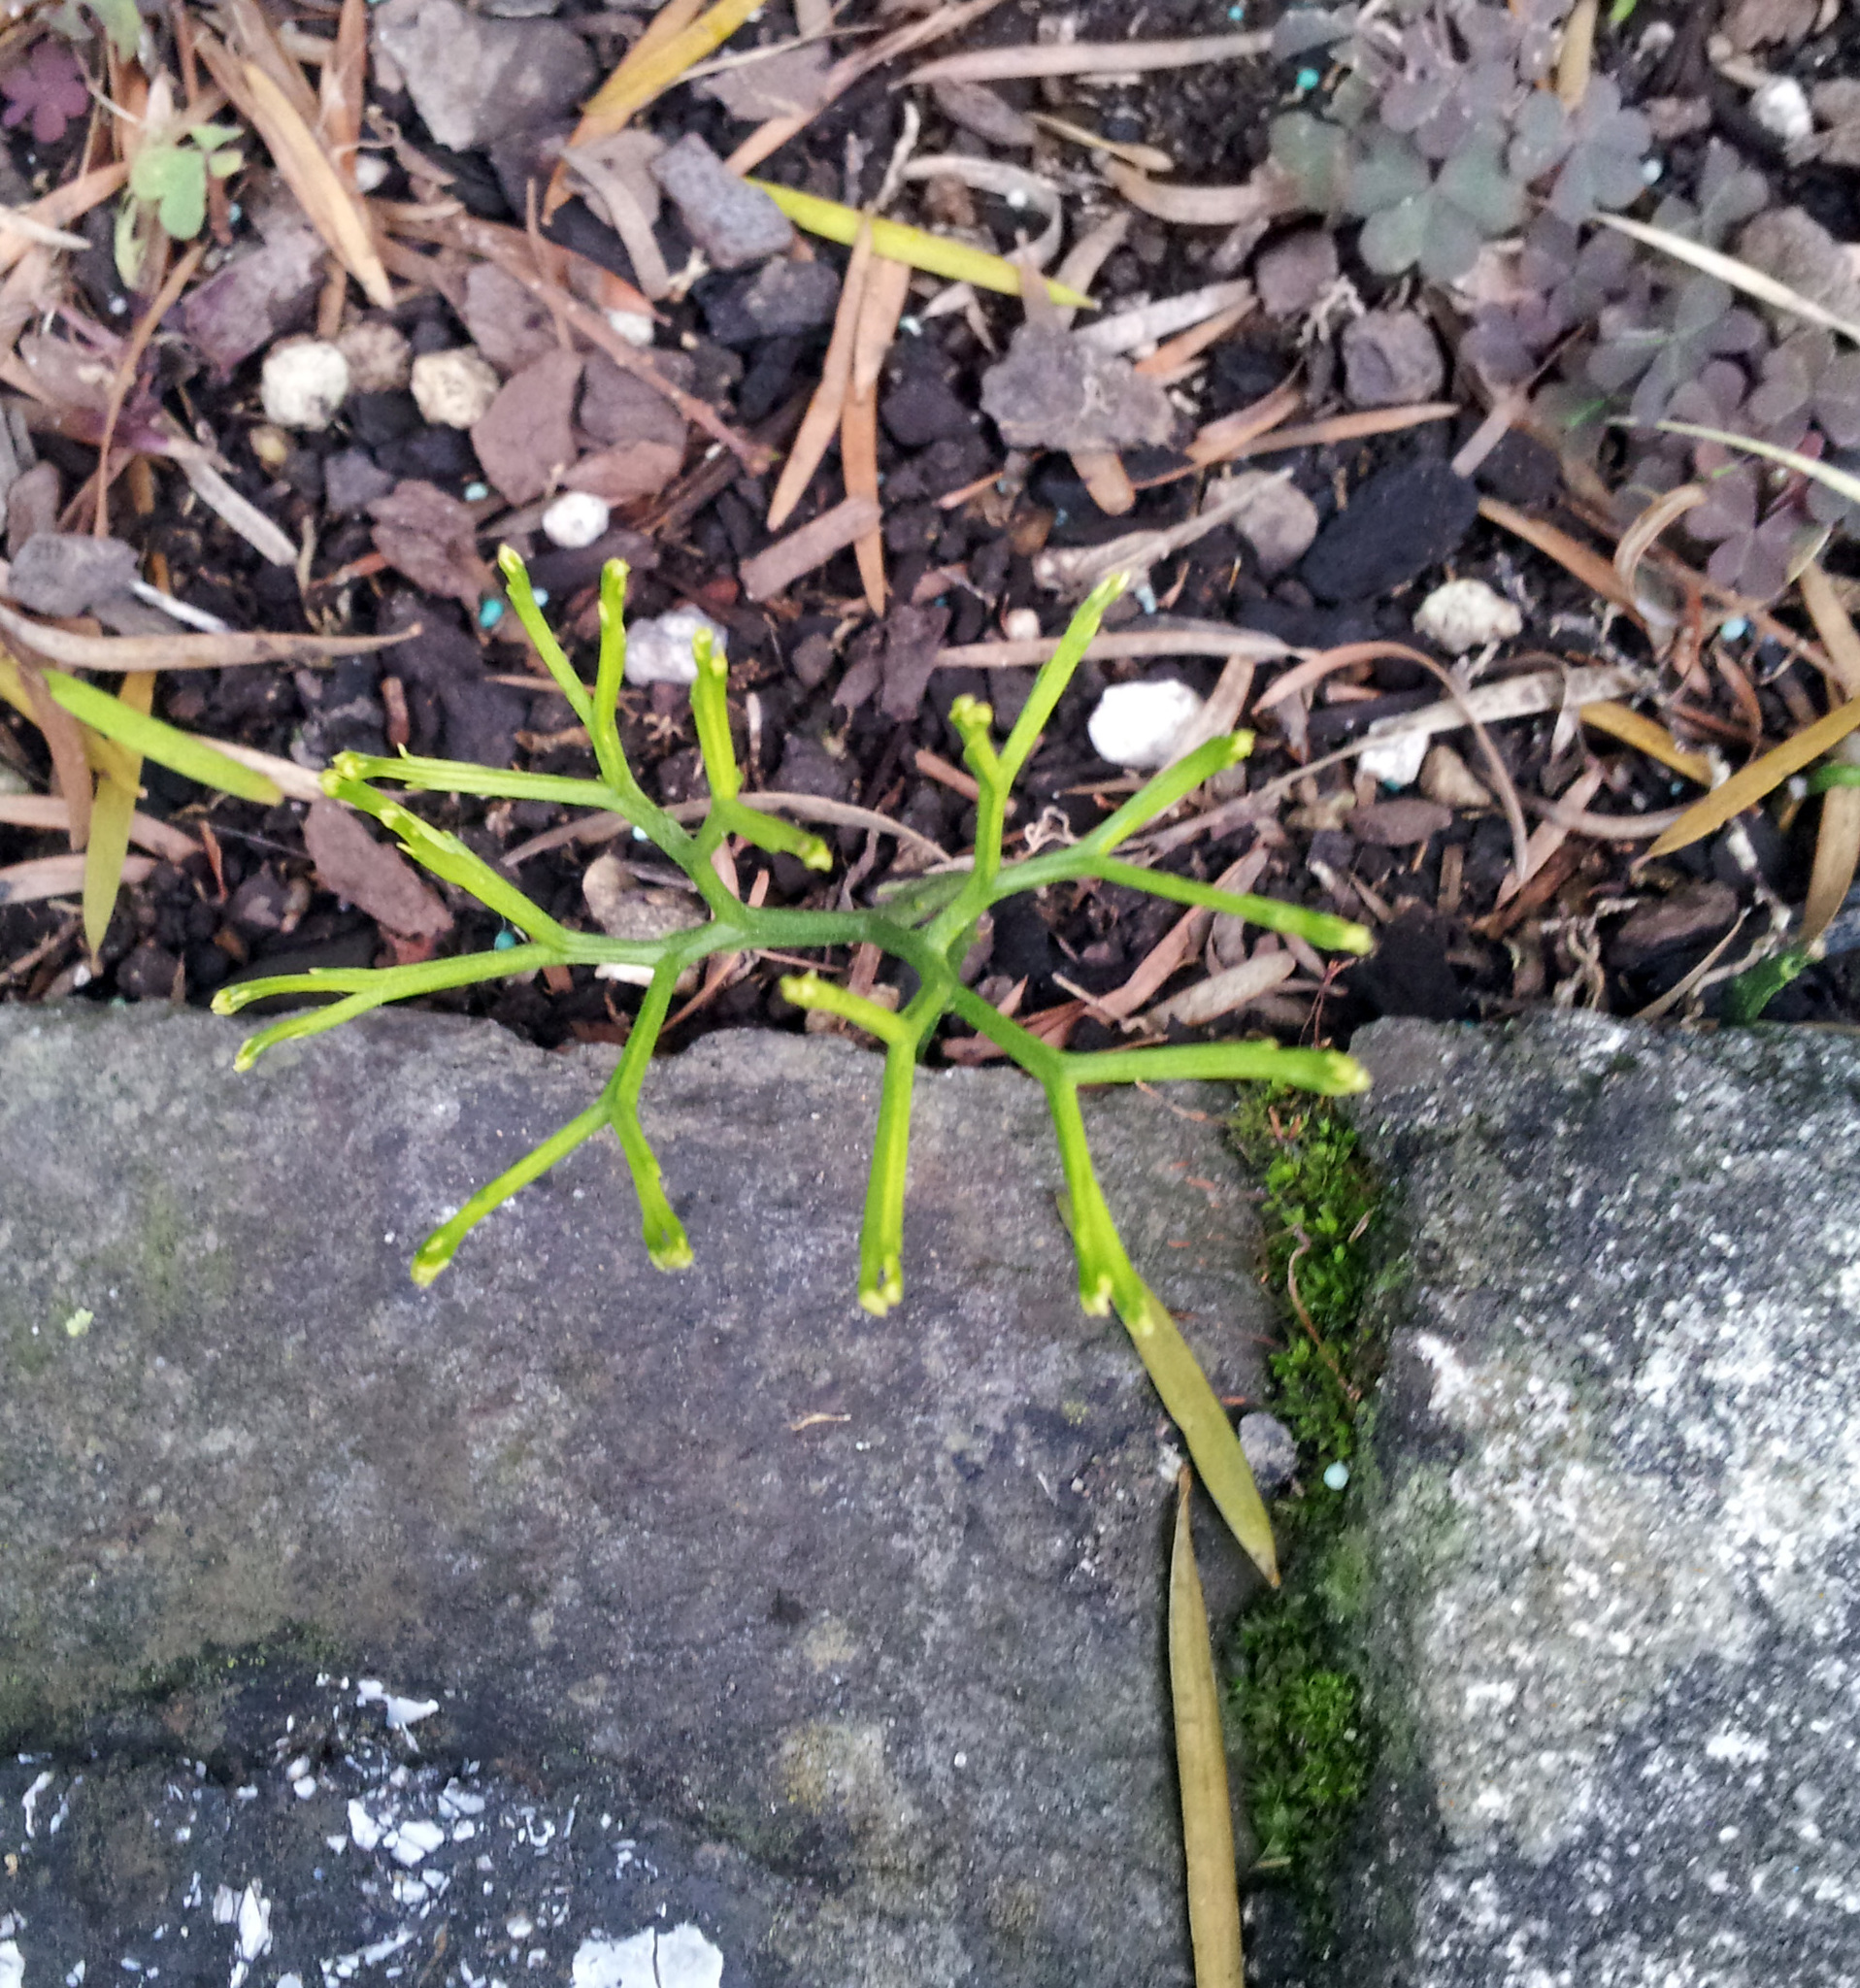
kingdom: Plantae
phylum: Tracheophyta
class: Polypodiopsida
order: Psilotales
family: Psilotaceae
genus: Psilotum
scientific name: Psilotum nudum
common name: Skeleton fork fern
